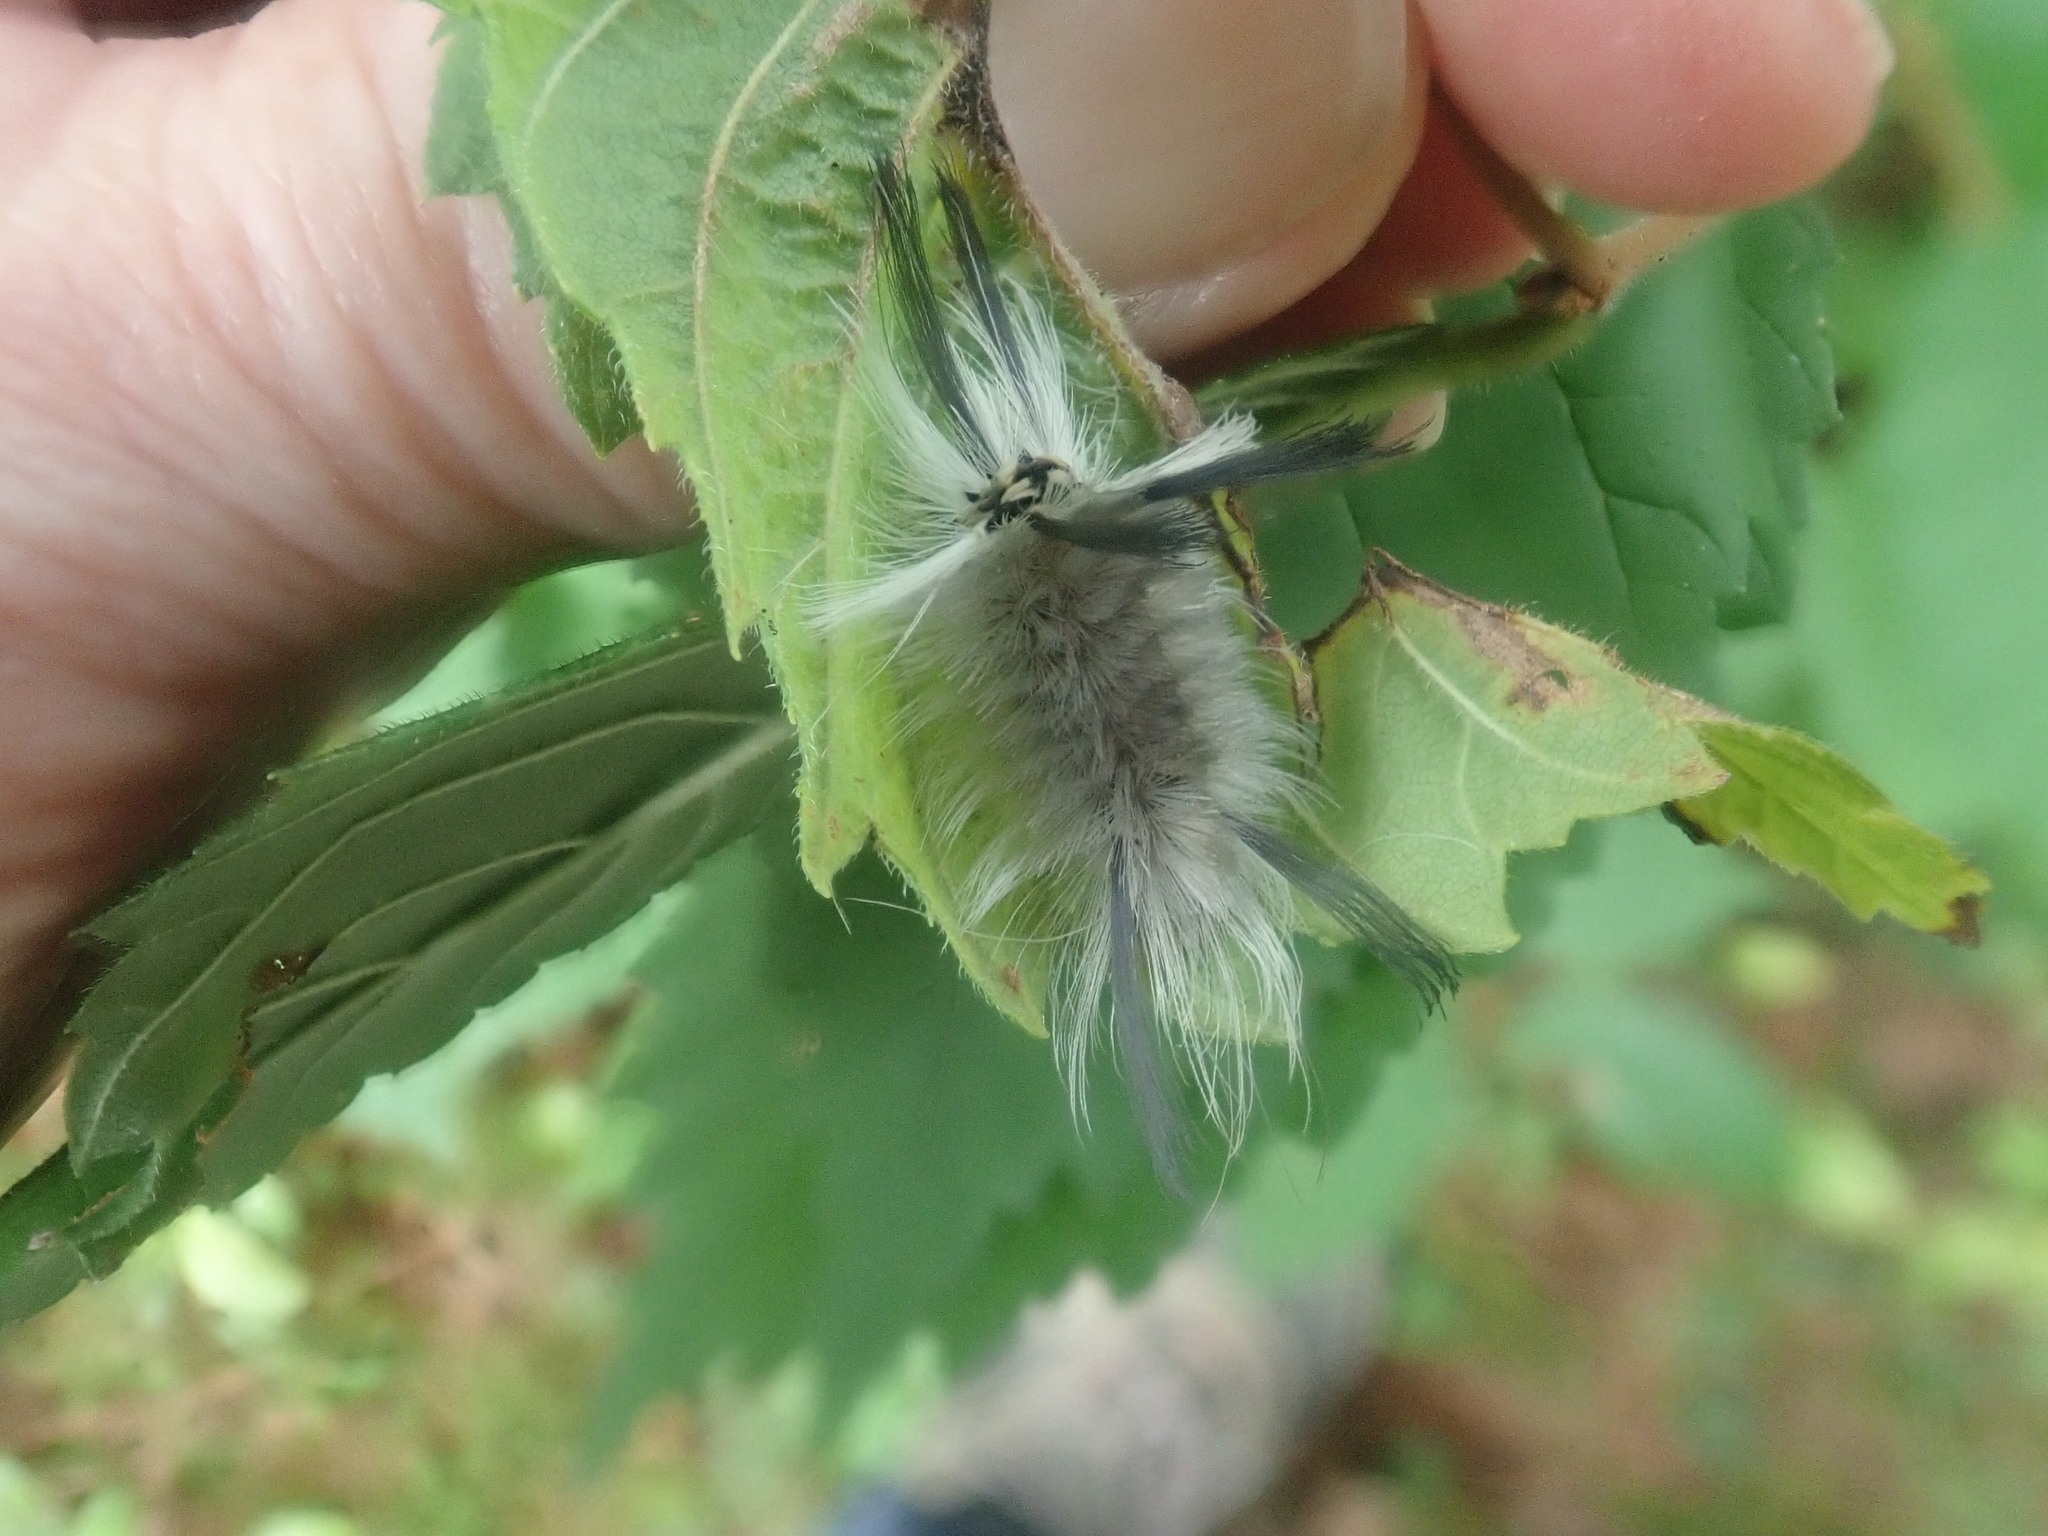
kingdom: Animalia
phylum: Arthropoda
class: Insecta
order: Lepidoptera
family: Erebidae
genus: Halysidota
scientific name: Halysidota tessellaris
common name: Banded tussock moth
